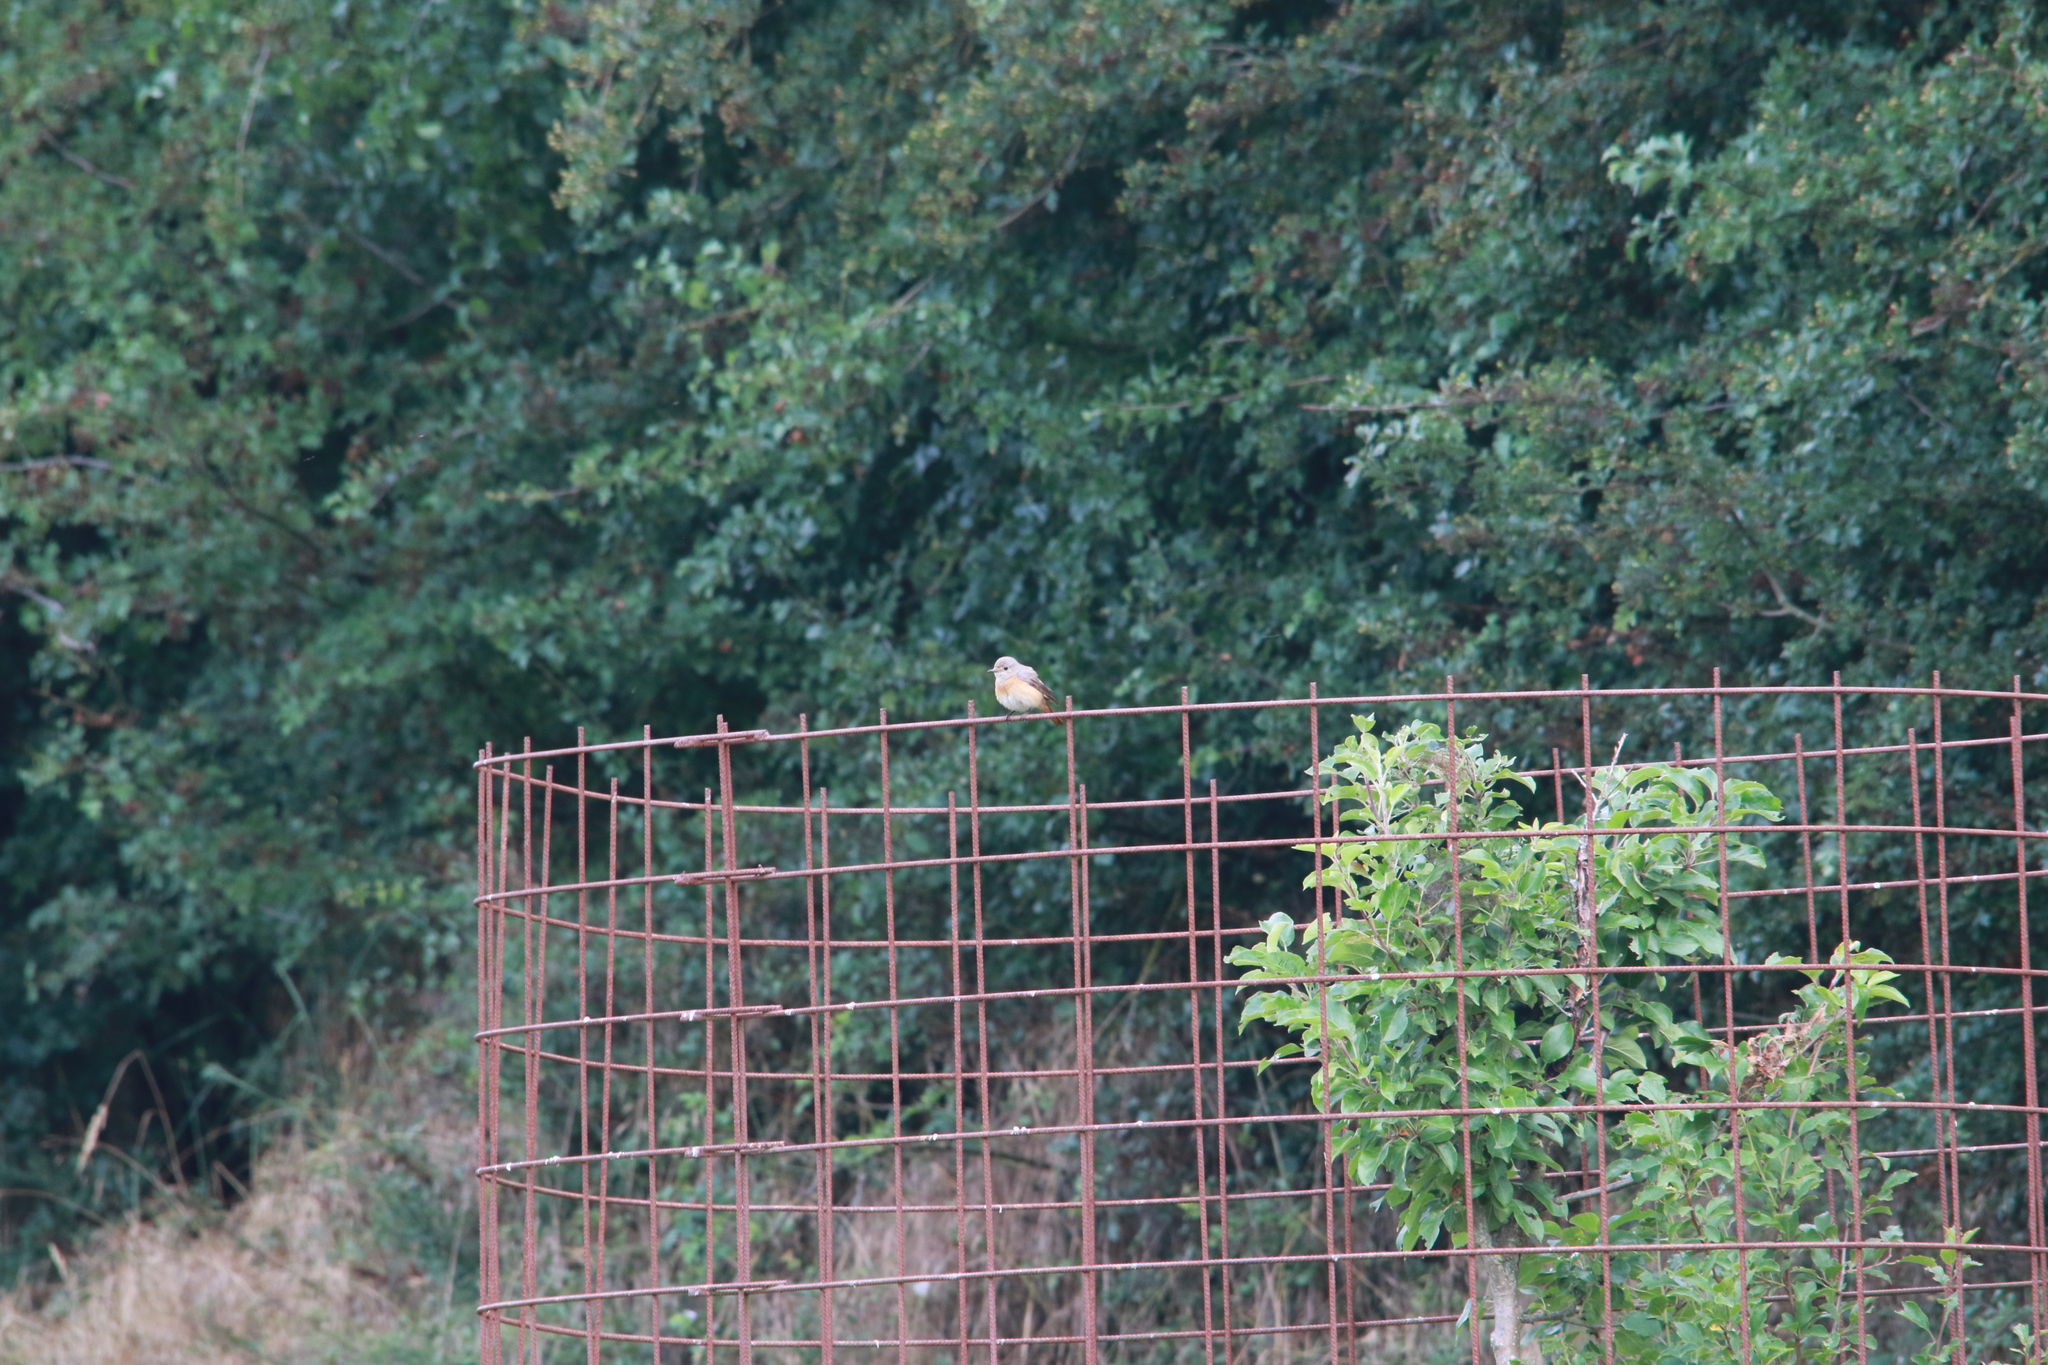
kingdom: Animalia
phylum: Chordata
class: Aves
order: Passeriformes
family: Muscicapidae
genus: Phoenicurus
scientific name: Phoenicurus phoenicurus
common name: Common redstart
